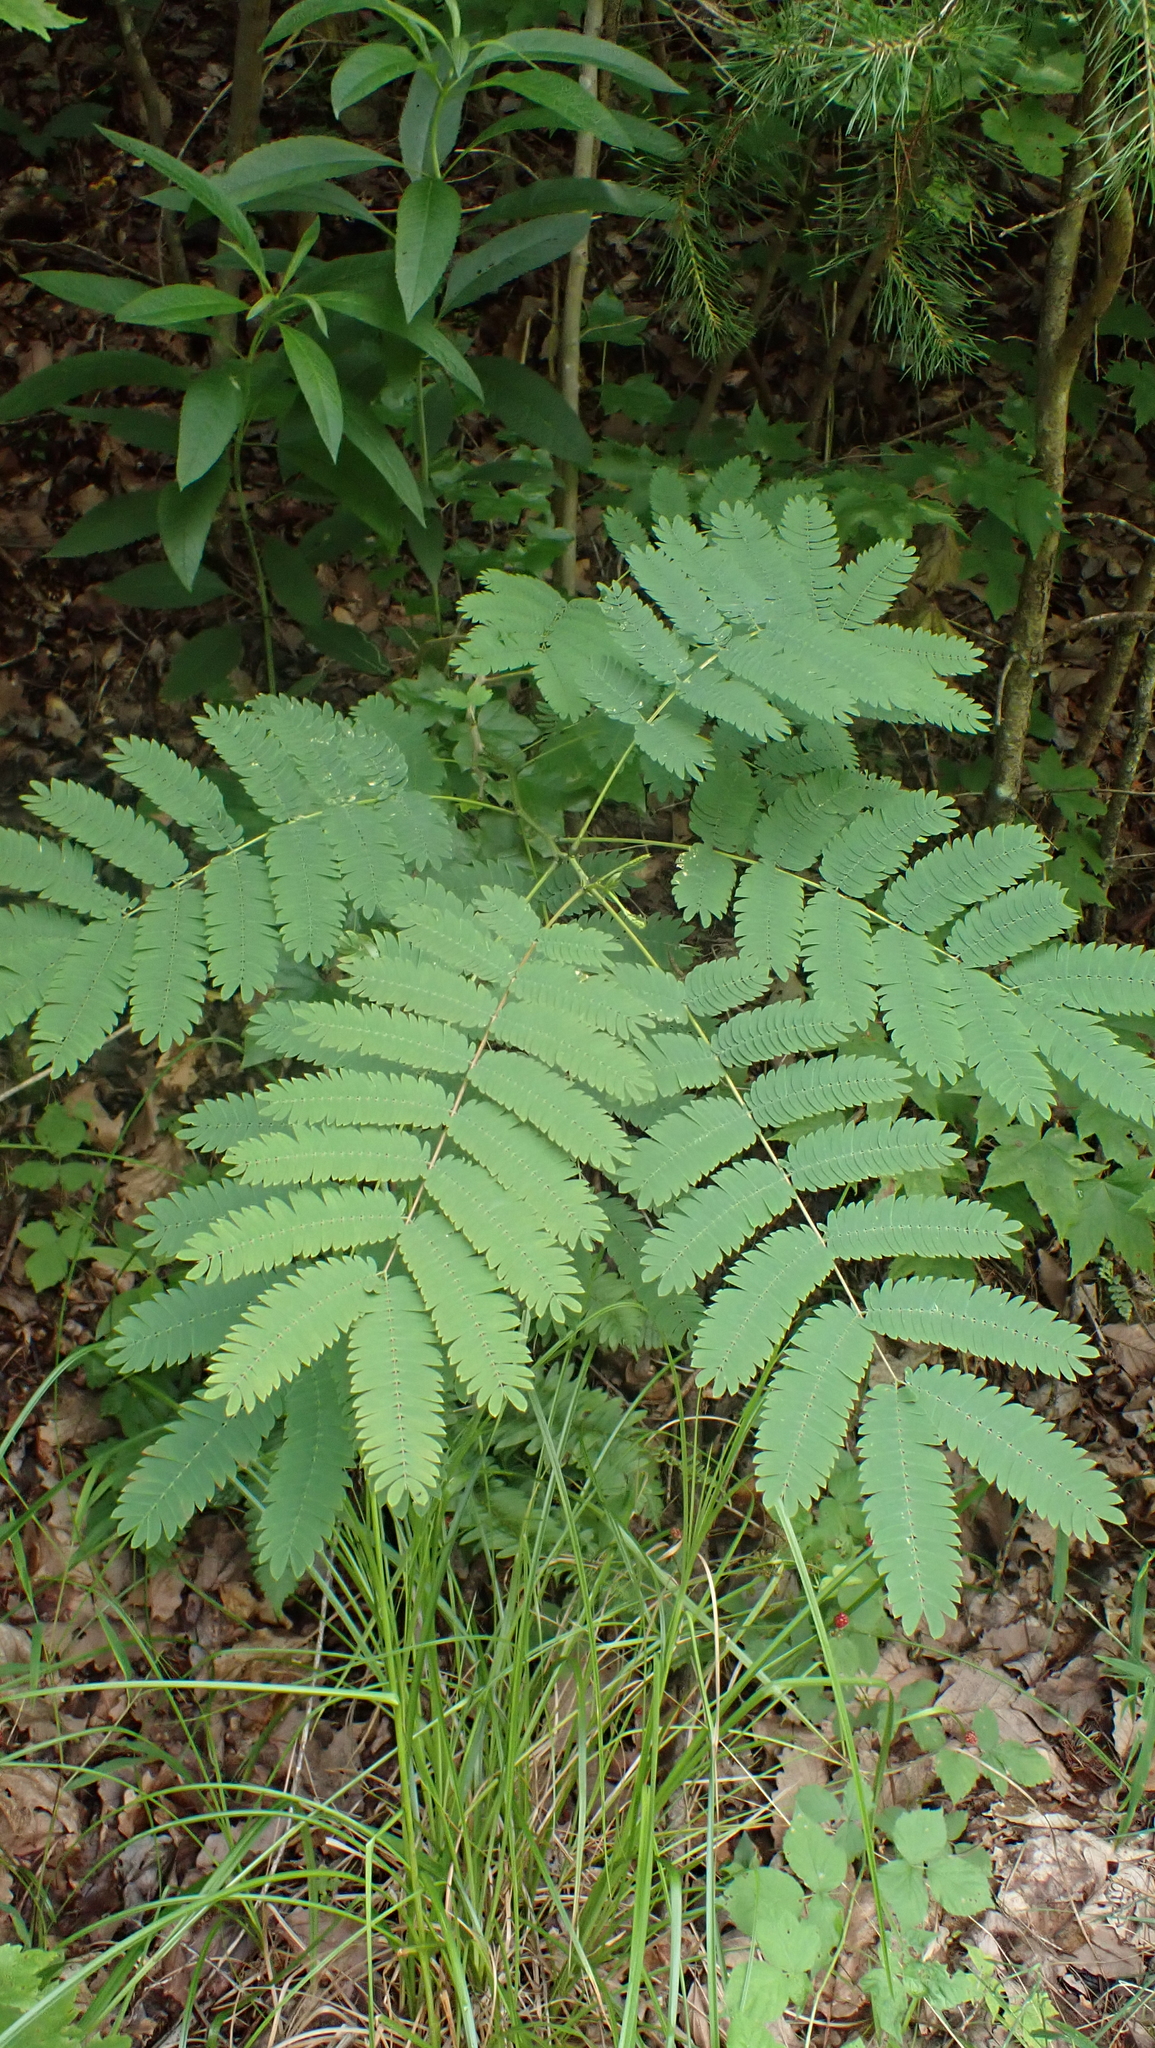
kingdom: Plantae
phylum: Tracheophyta
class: Magnoliopsida
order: Fabales
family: Fabaceae
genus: Albizia
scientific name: Albizia julibrissin
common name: Silktree
